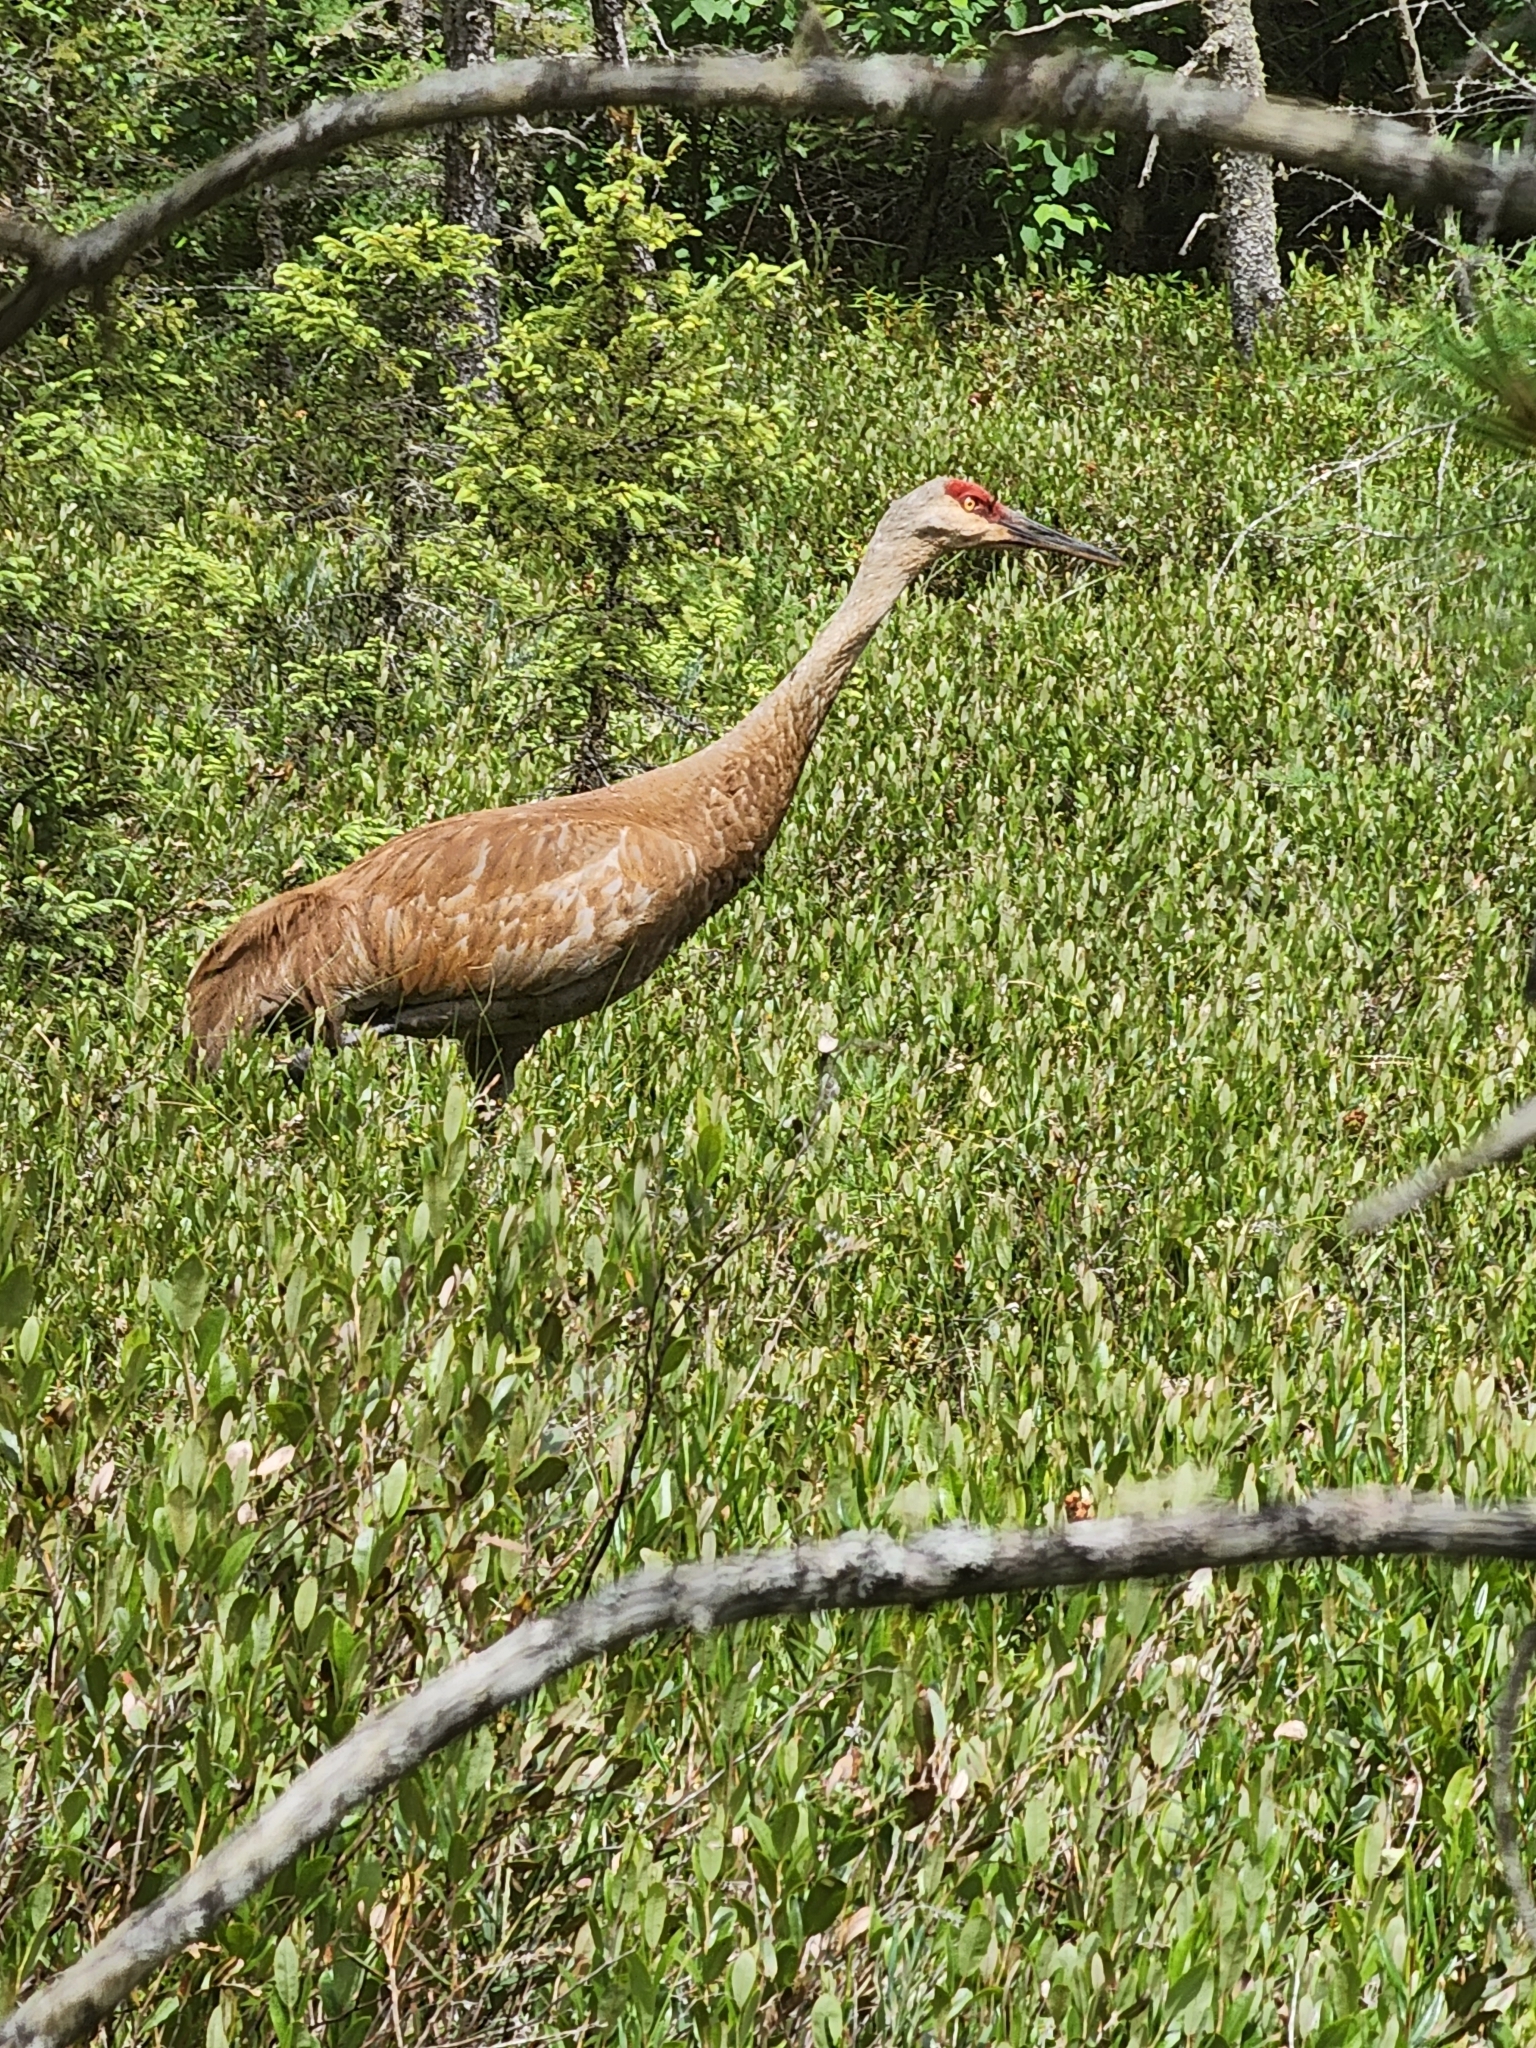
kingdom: Animalia
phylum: Chordata
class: Aves
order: Gruiformes
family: Gruidae
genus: Grus
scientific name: Grus canadensis
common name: Sandhill crane
